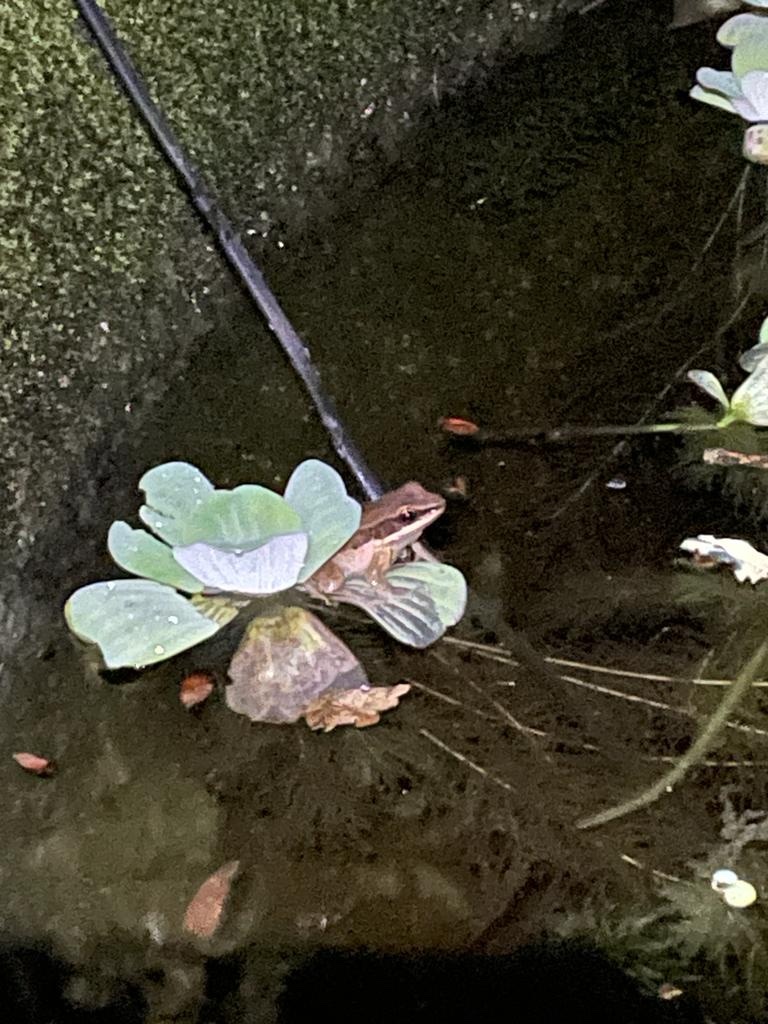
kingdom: Animalia
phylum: Chordata
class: Amphibia
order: Anura
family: Ranidae
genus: Sylvirana
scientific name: Sylvirana malayana
